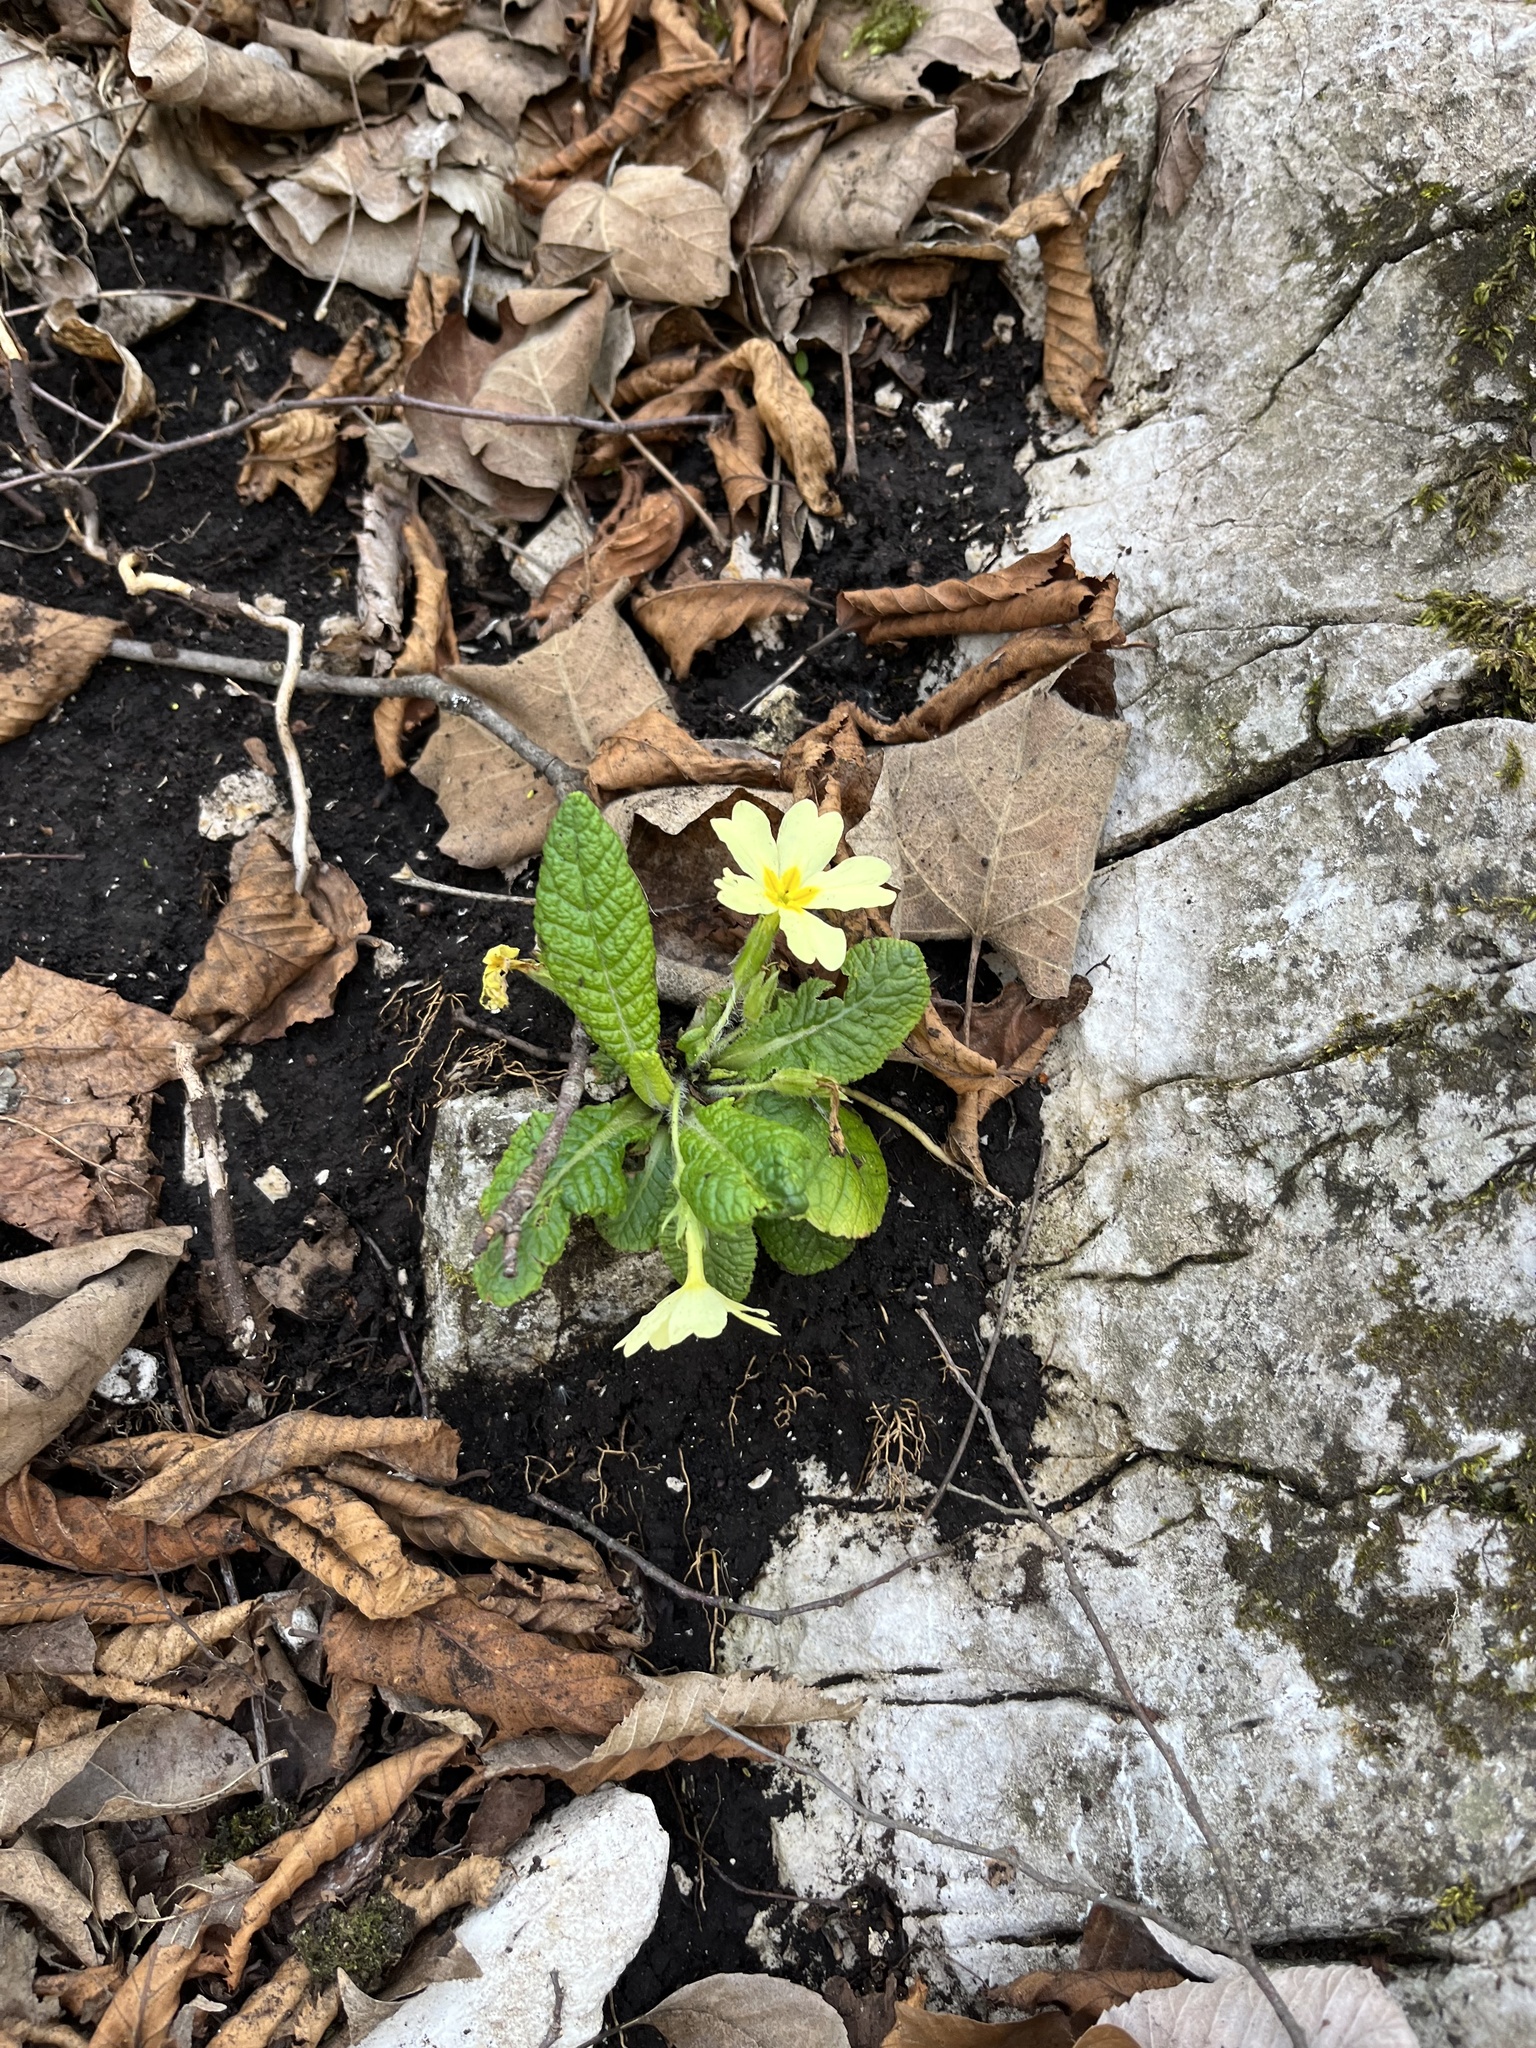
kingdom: Plantae
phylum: Tracheophyta
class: Magnoliopsida
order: Ericales
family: Primulaceae
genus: Primula
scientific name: Primula vulgaris
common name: Primrose
